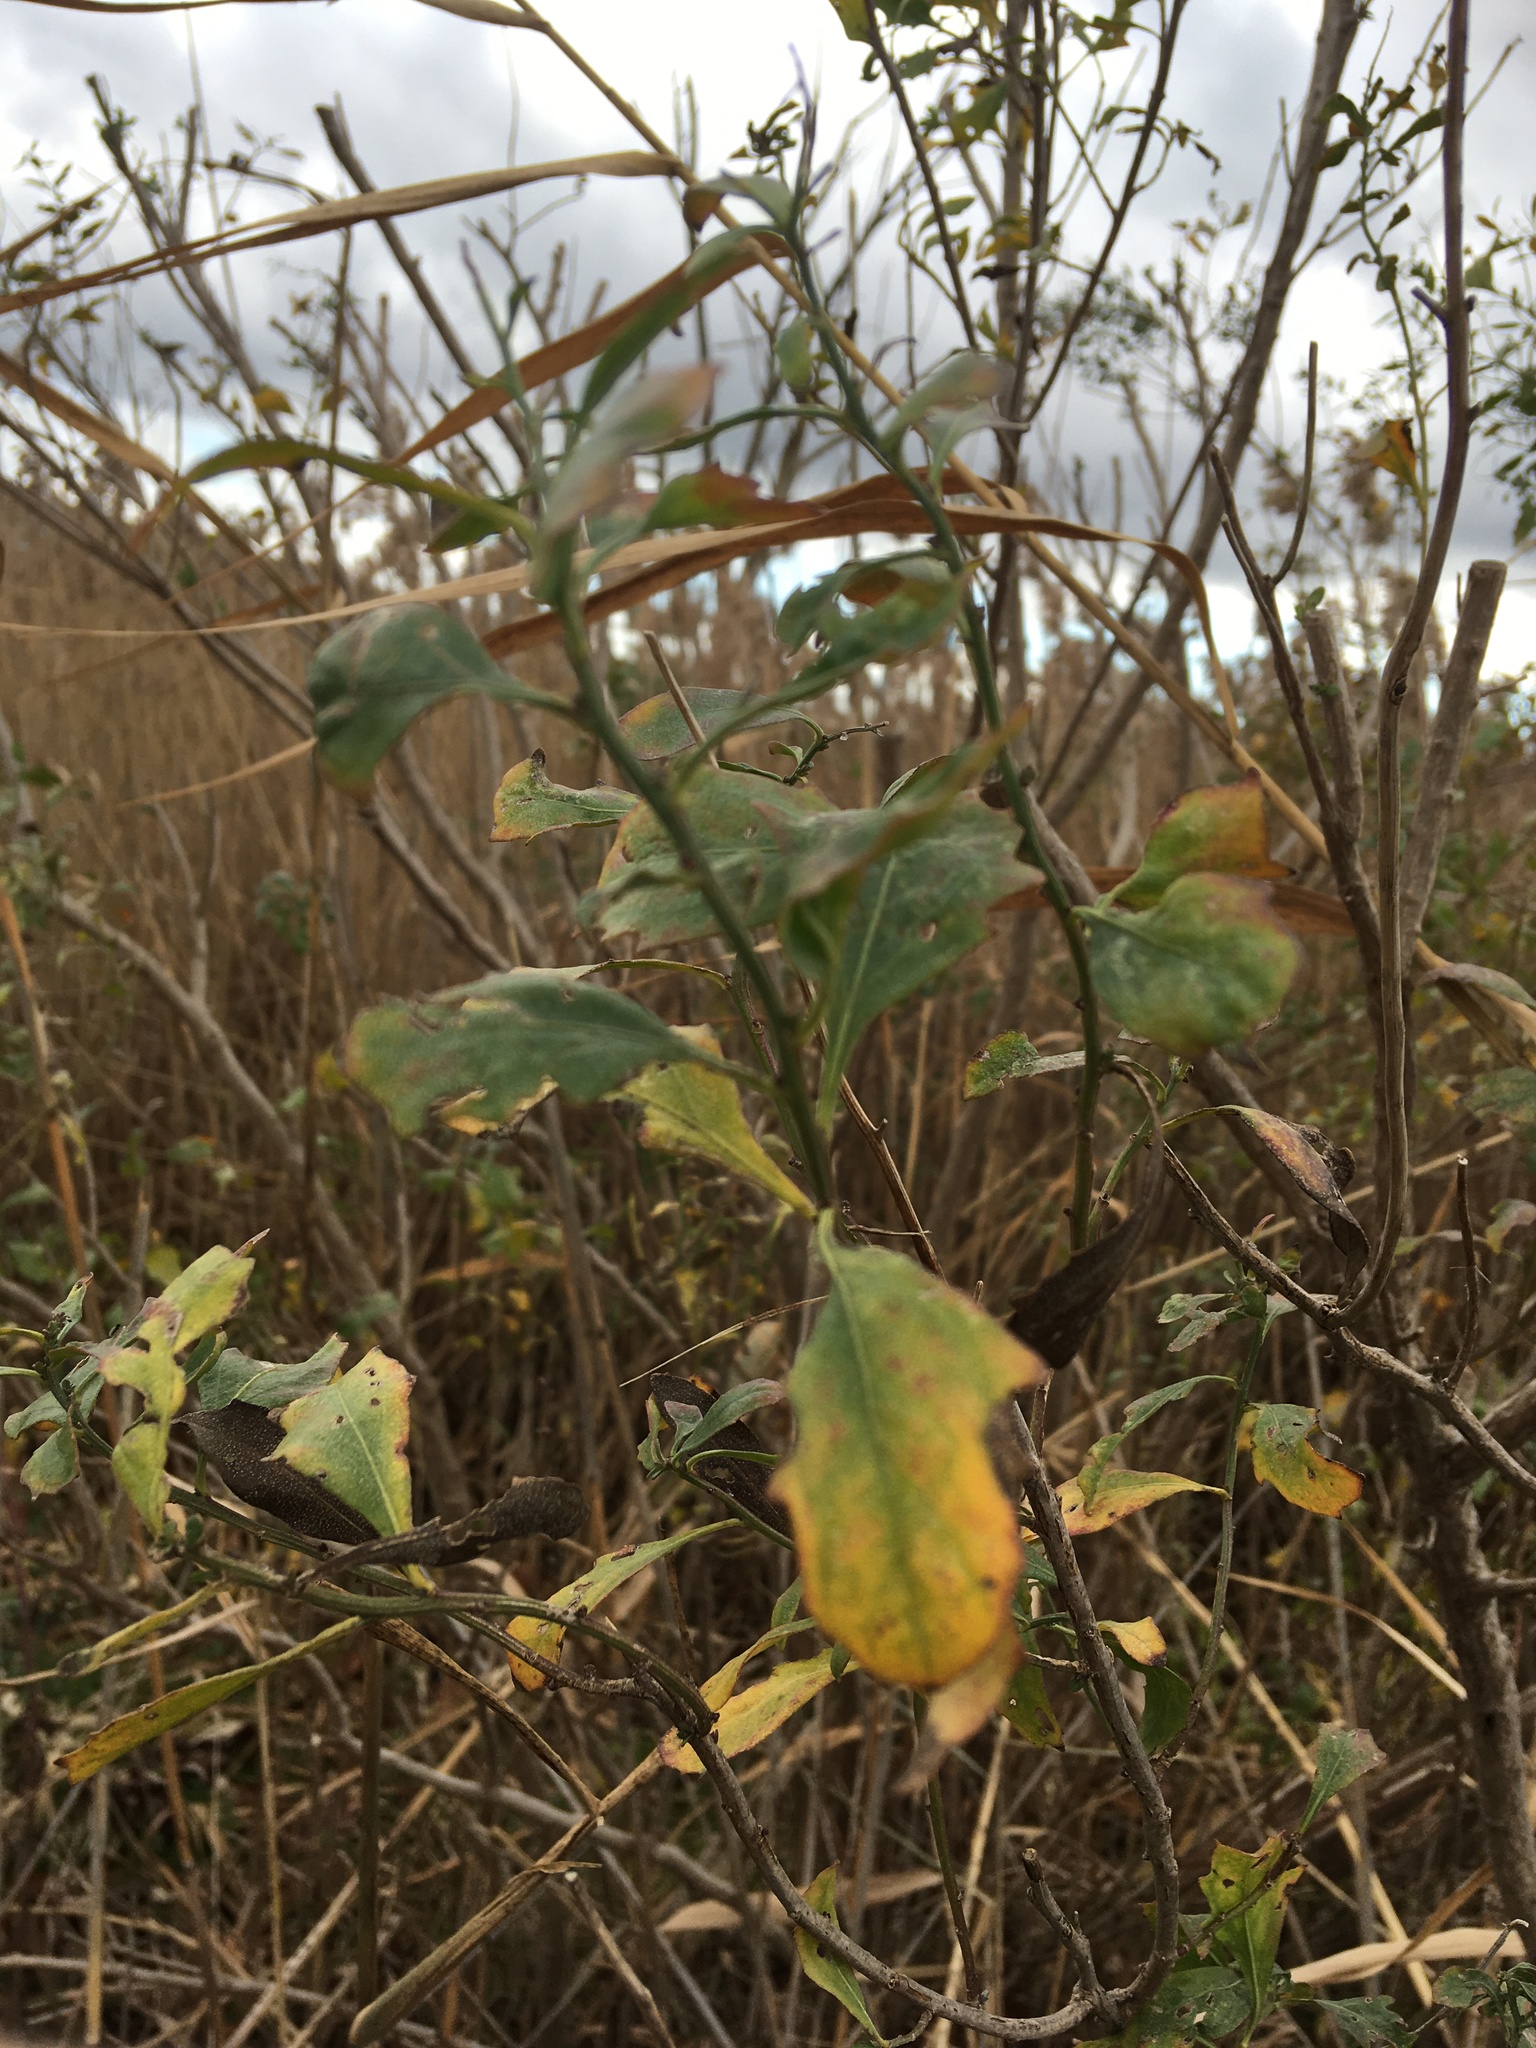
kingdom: Plantae
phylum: Tracheophyta
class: Magnoliopsida
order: Asterales
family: Asteraceae
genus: Baccharis
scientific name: Baccharis halimifolia
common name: Eastern baccharis
